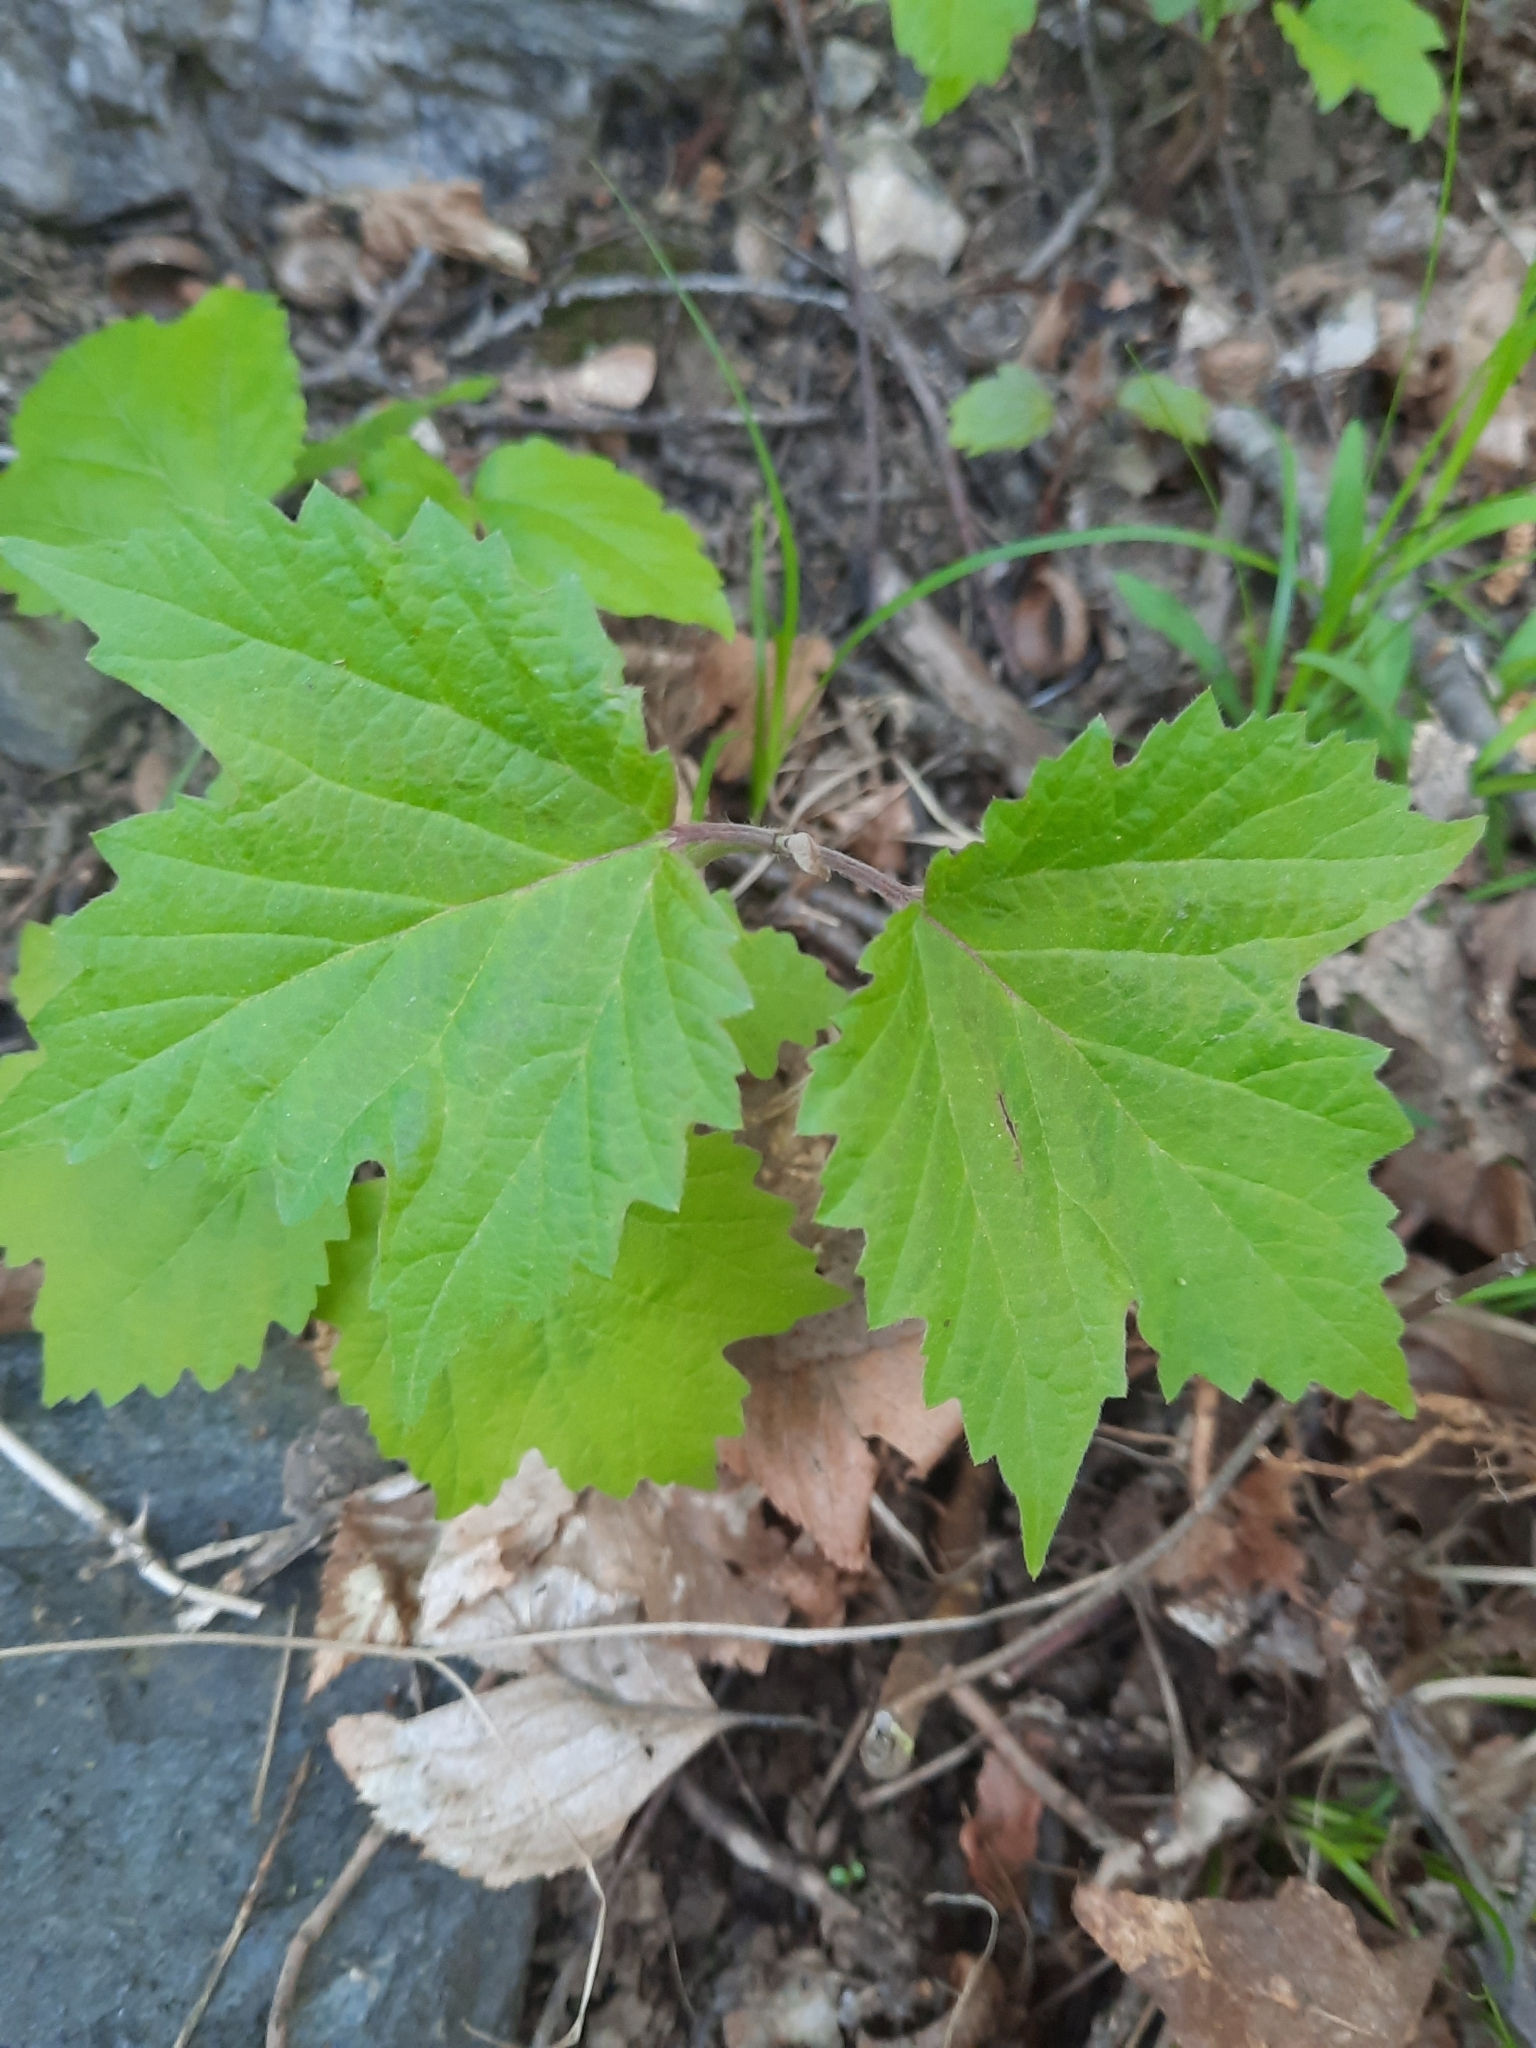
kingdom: Plantae
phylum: Tracheophyta
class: Magnoliopsida
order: Dipsacales
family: Viburnaceae
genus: Viburnum
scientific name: Viburnum acerifolium
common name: Dockmackie
